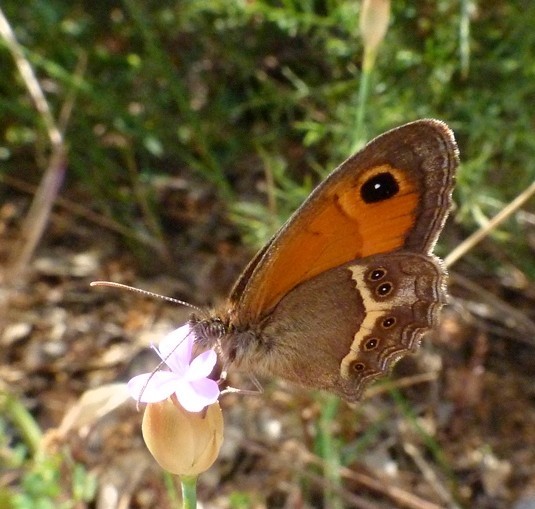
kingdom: Animalia
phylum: Arthropoda
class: Insecta
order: Lepidoptera
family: Nymphalidae
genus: Pyronia
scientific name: Pyronia bathseba
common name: Spanish gatekeeper
